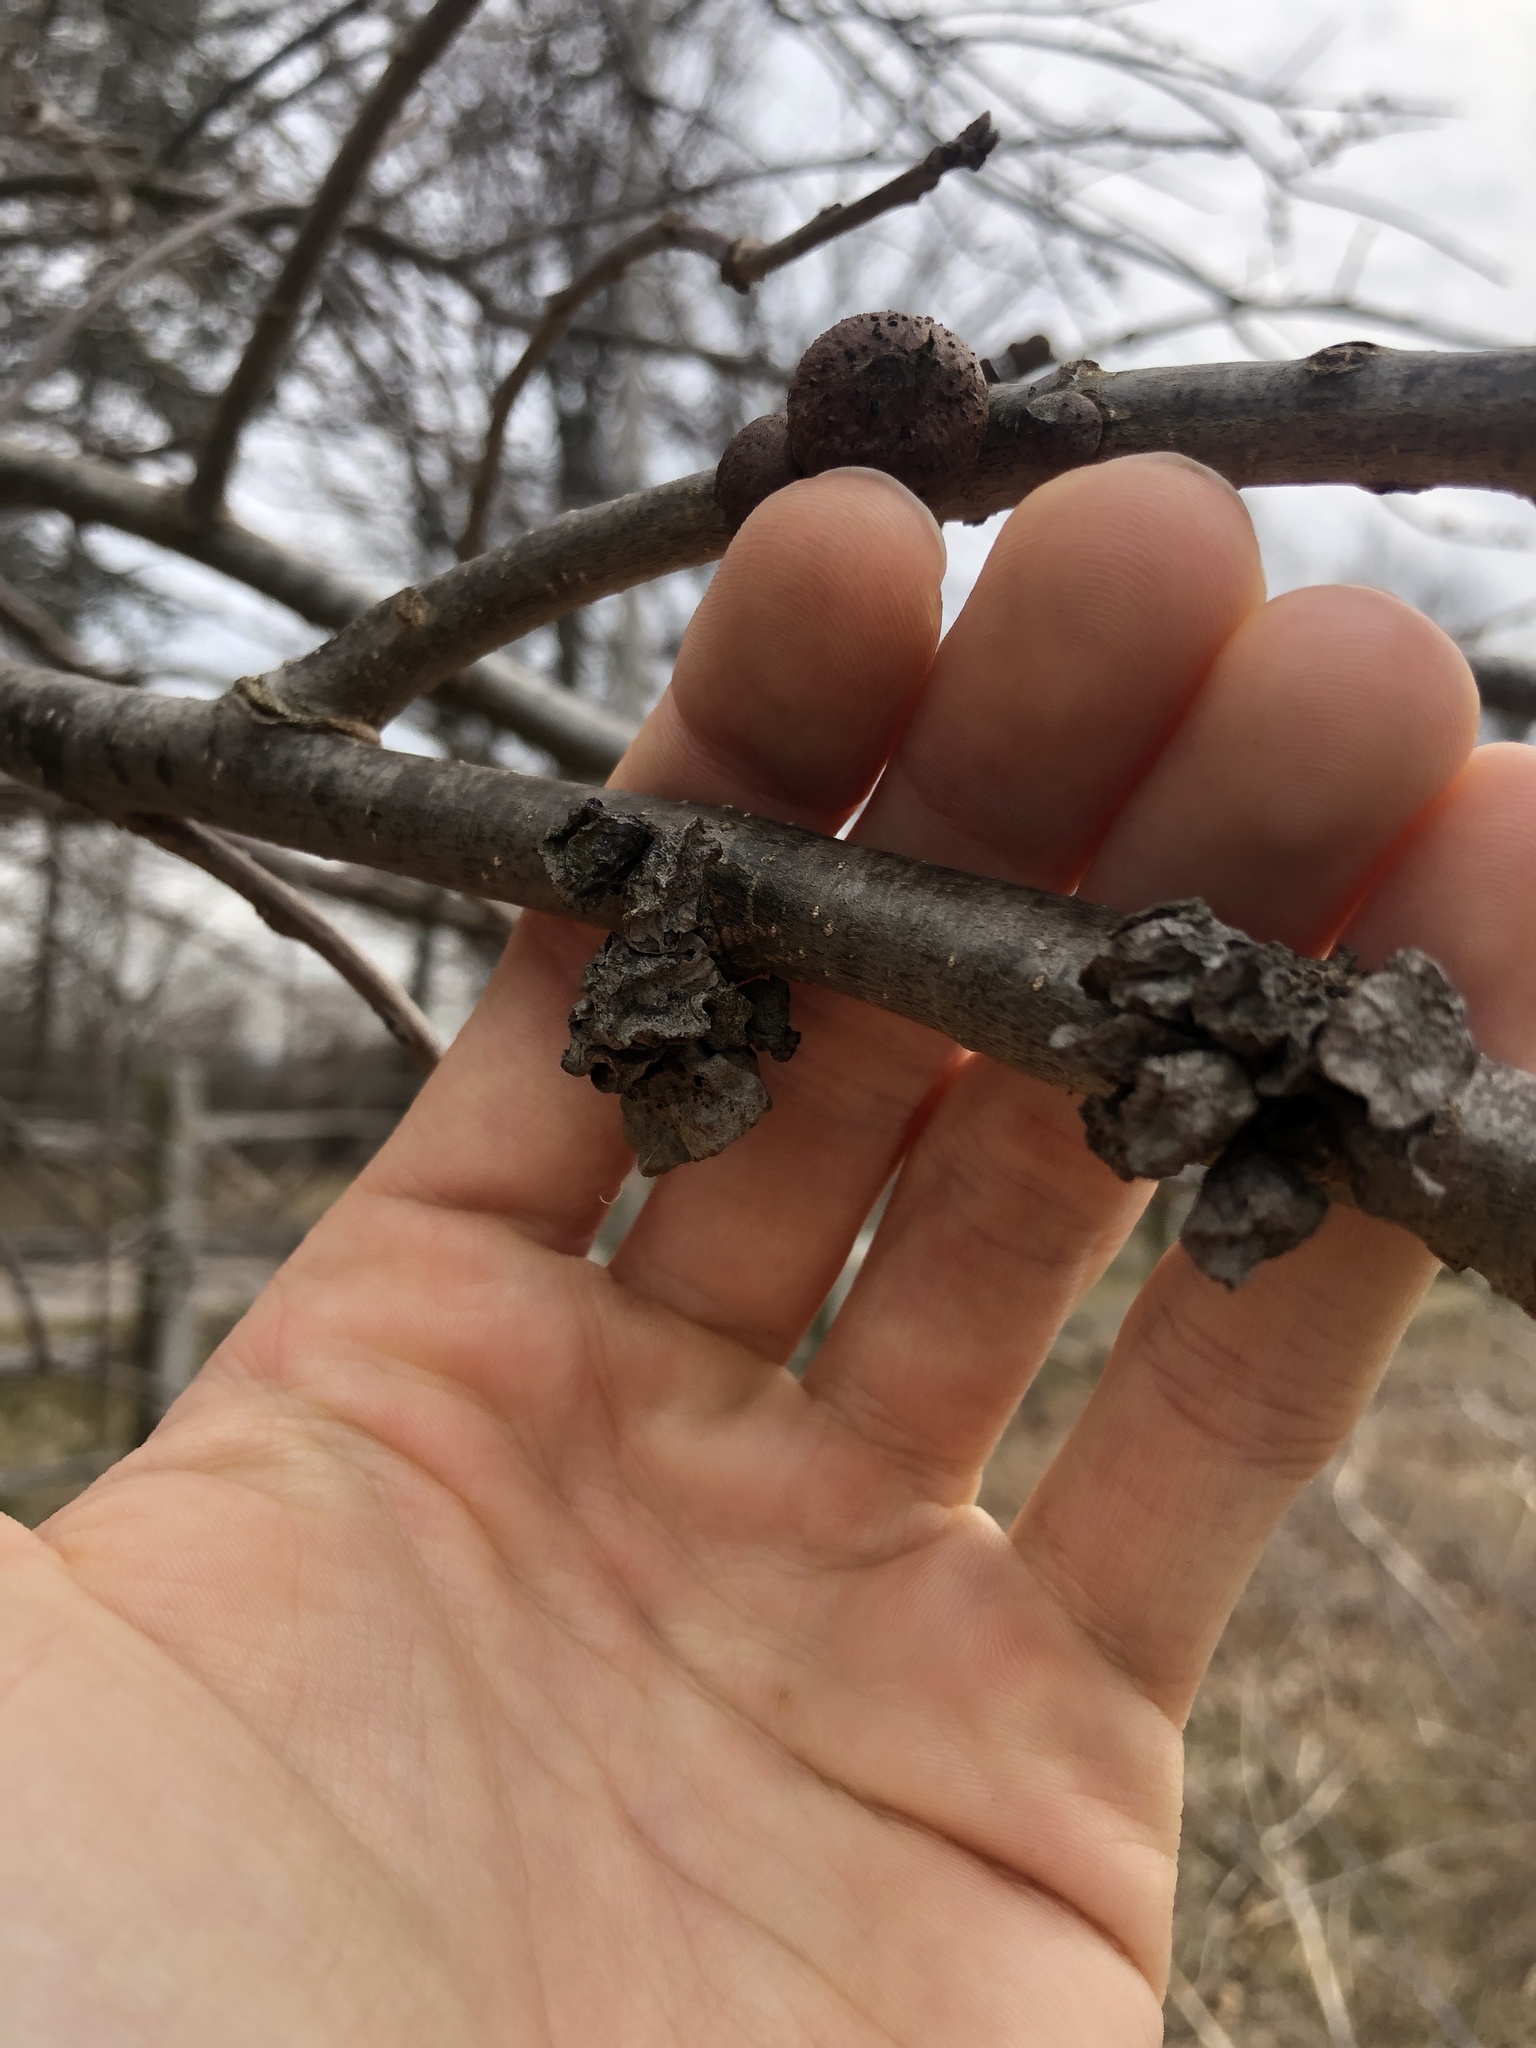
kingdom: Animalia
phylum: Arthropoda
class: Insecta
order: Hymenoptera
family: Cynipidae
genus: Andricus
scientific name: Andricus
